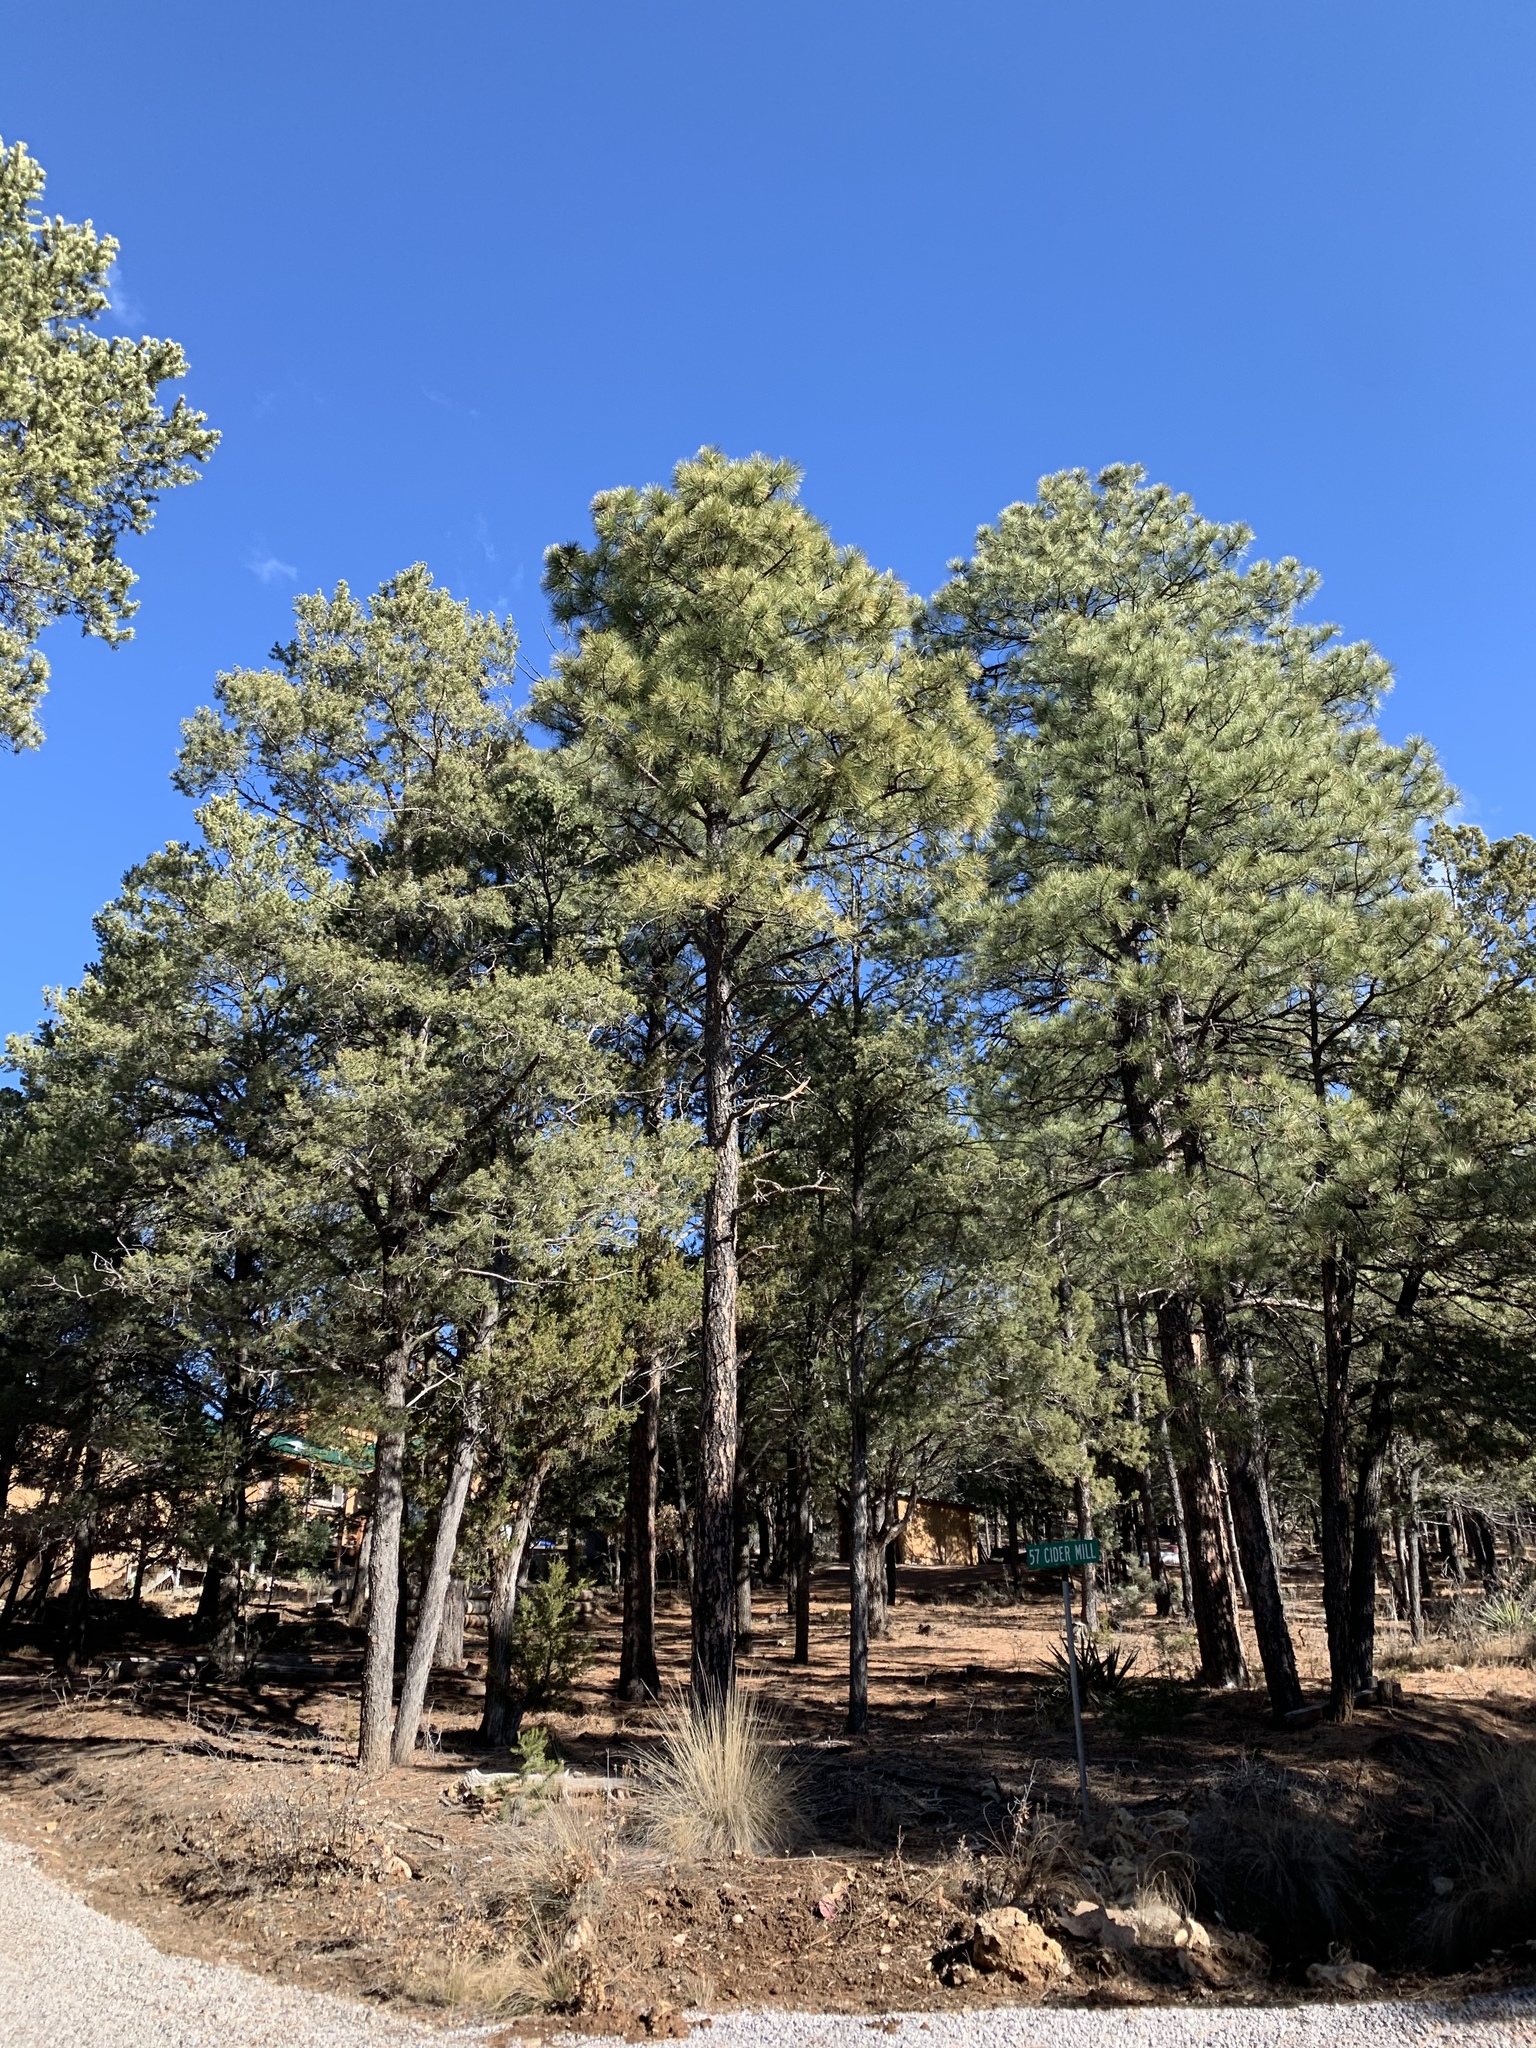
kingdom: Plantae
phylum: Tracheophyta
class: Pinopsida
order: Pinales
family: Pinaceae
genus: Pinus
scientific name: Pinus ponderosa
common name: Western yellow-pine
